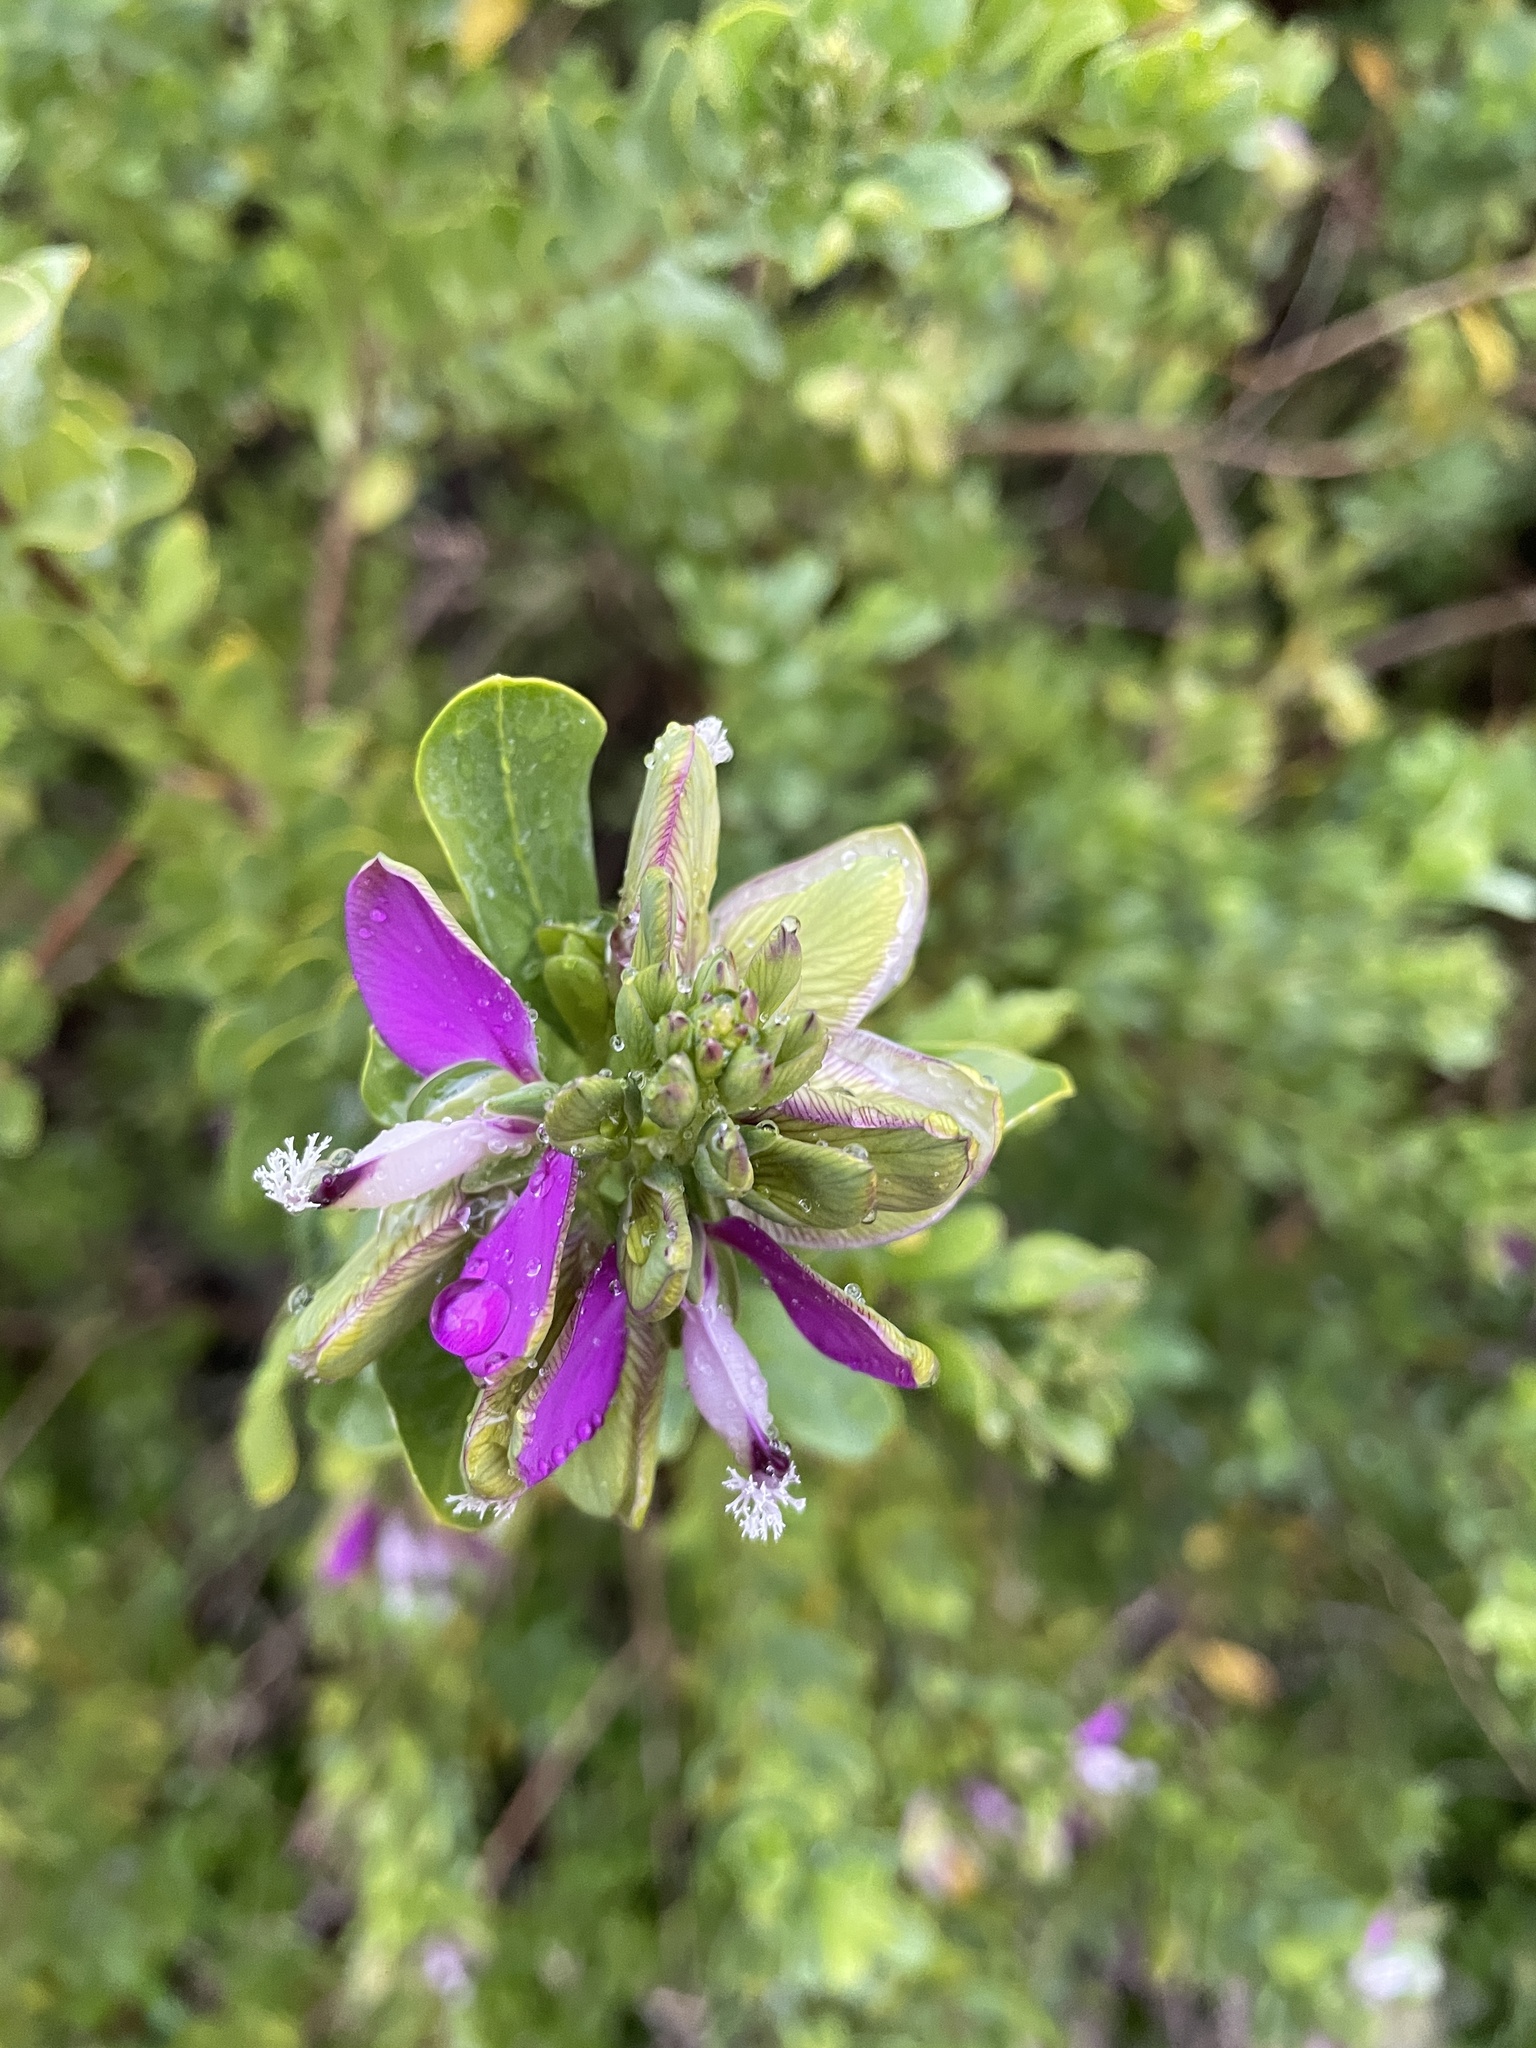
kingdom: Plantae
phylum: Tracheophyta
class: Magnoliopsida
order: Fabales
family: Polygalaceae
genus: Polygala
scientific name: Polygala myrtifolia
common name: Myrtle-leaf milkwort
